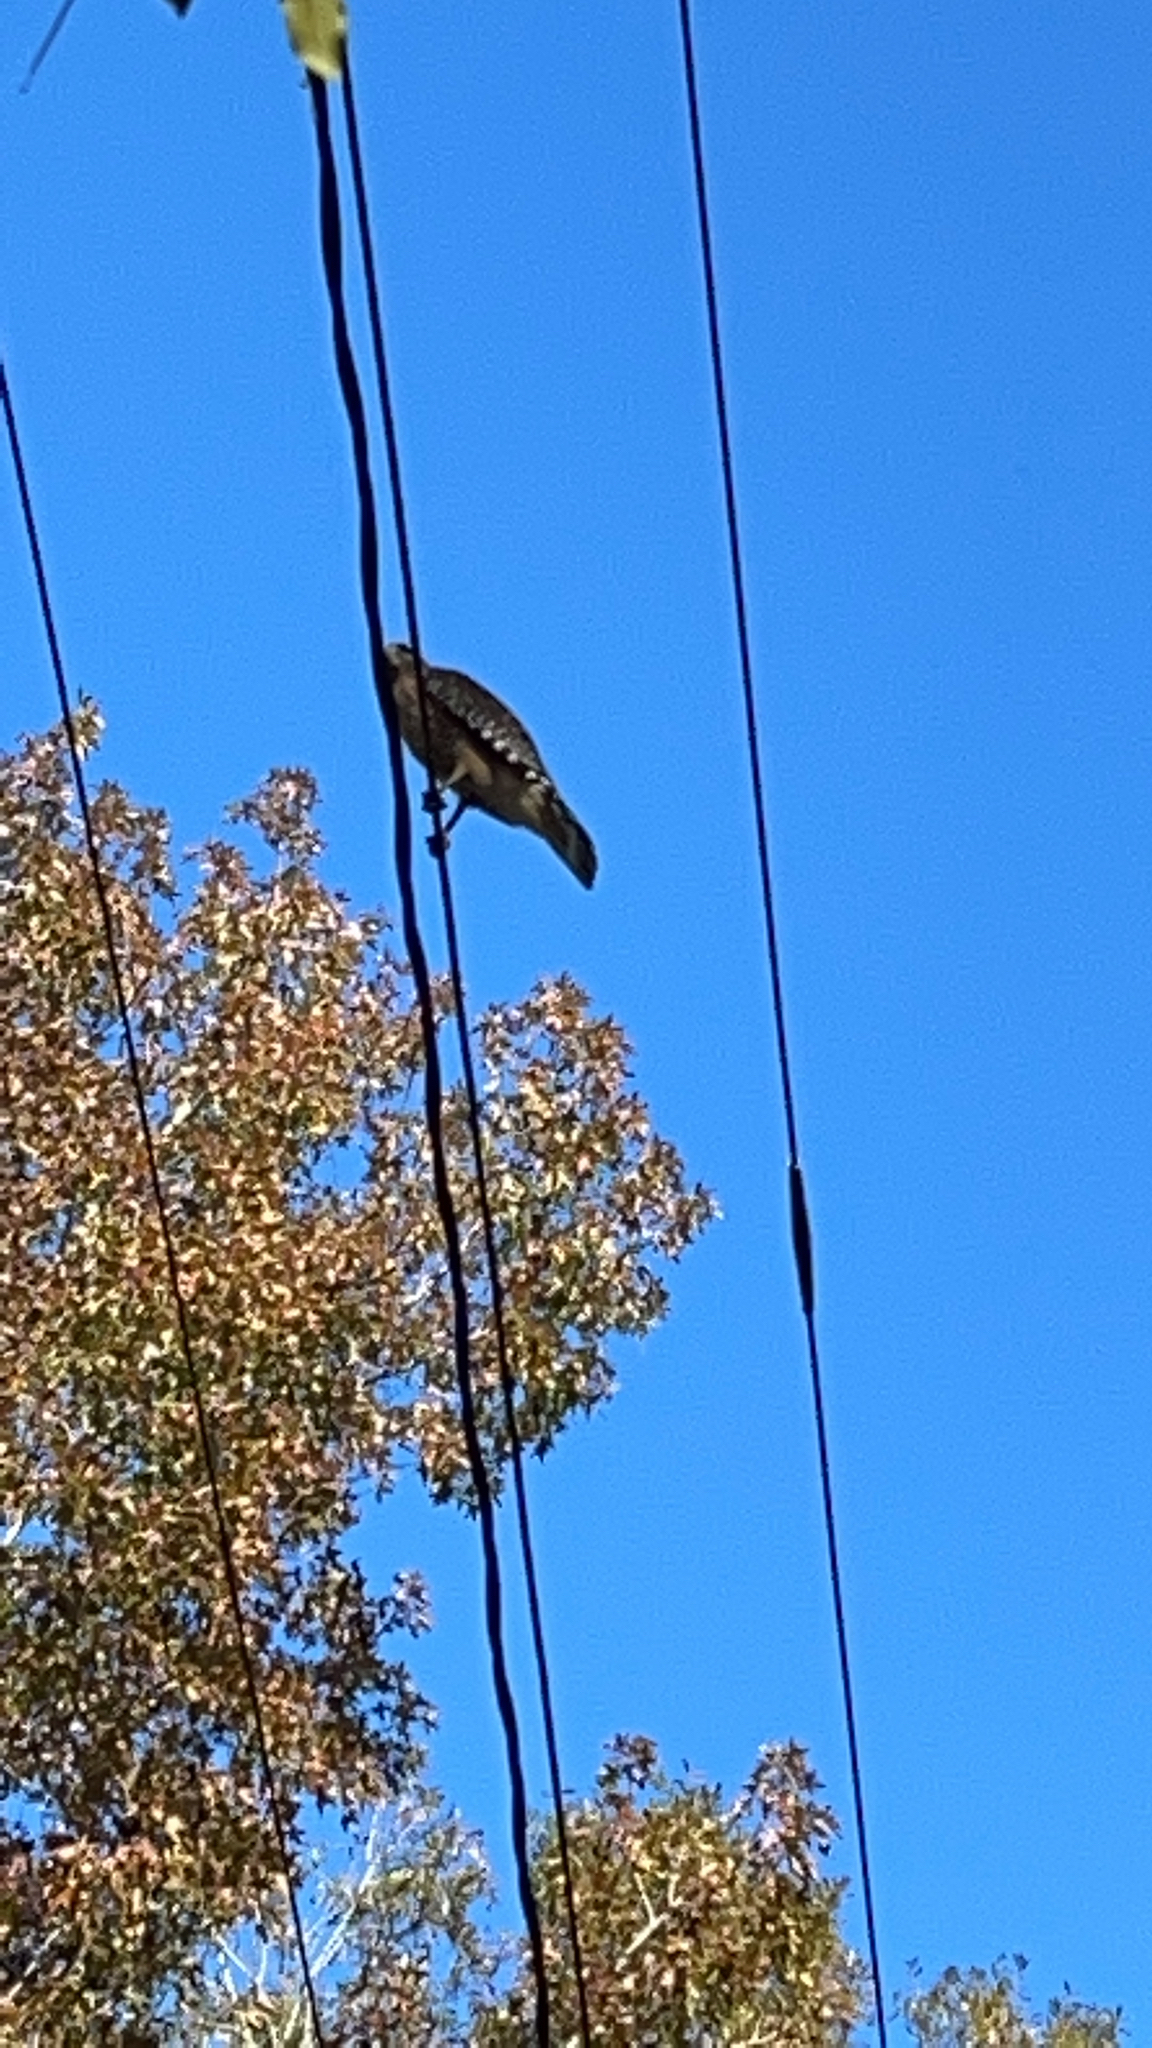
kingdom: Animalia
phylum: Chordata
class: Aves
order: Accipitriformes
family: Accipitridae
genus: Buteo
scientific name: Buteo lineatus
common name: Red-shouldered hawk
